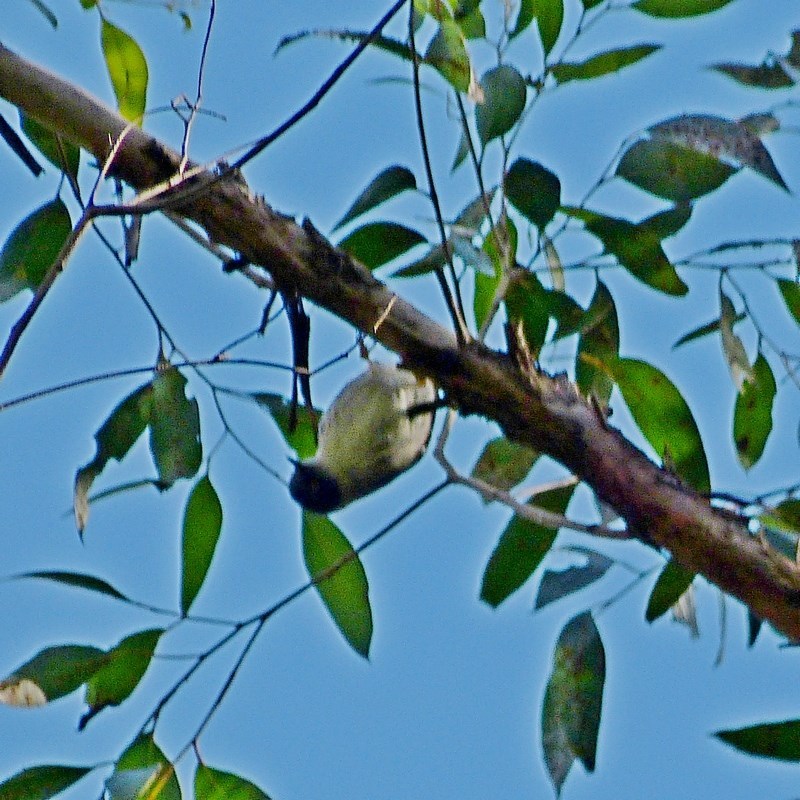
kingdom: Animalia
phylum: Chordata
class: Aves
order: Passeriformes
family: Neosittidae
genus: Daphoenositta
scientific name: Daphoenositta chrysoptera
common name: Varied sittella
